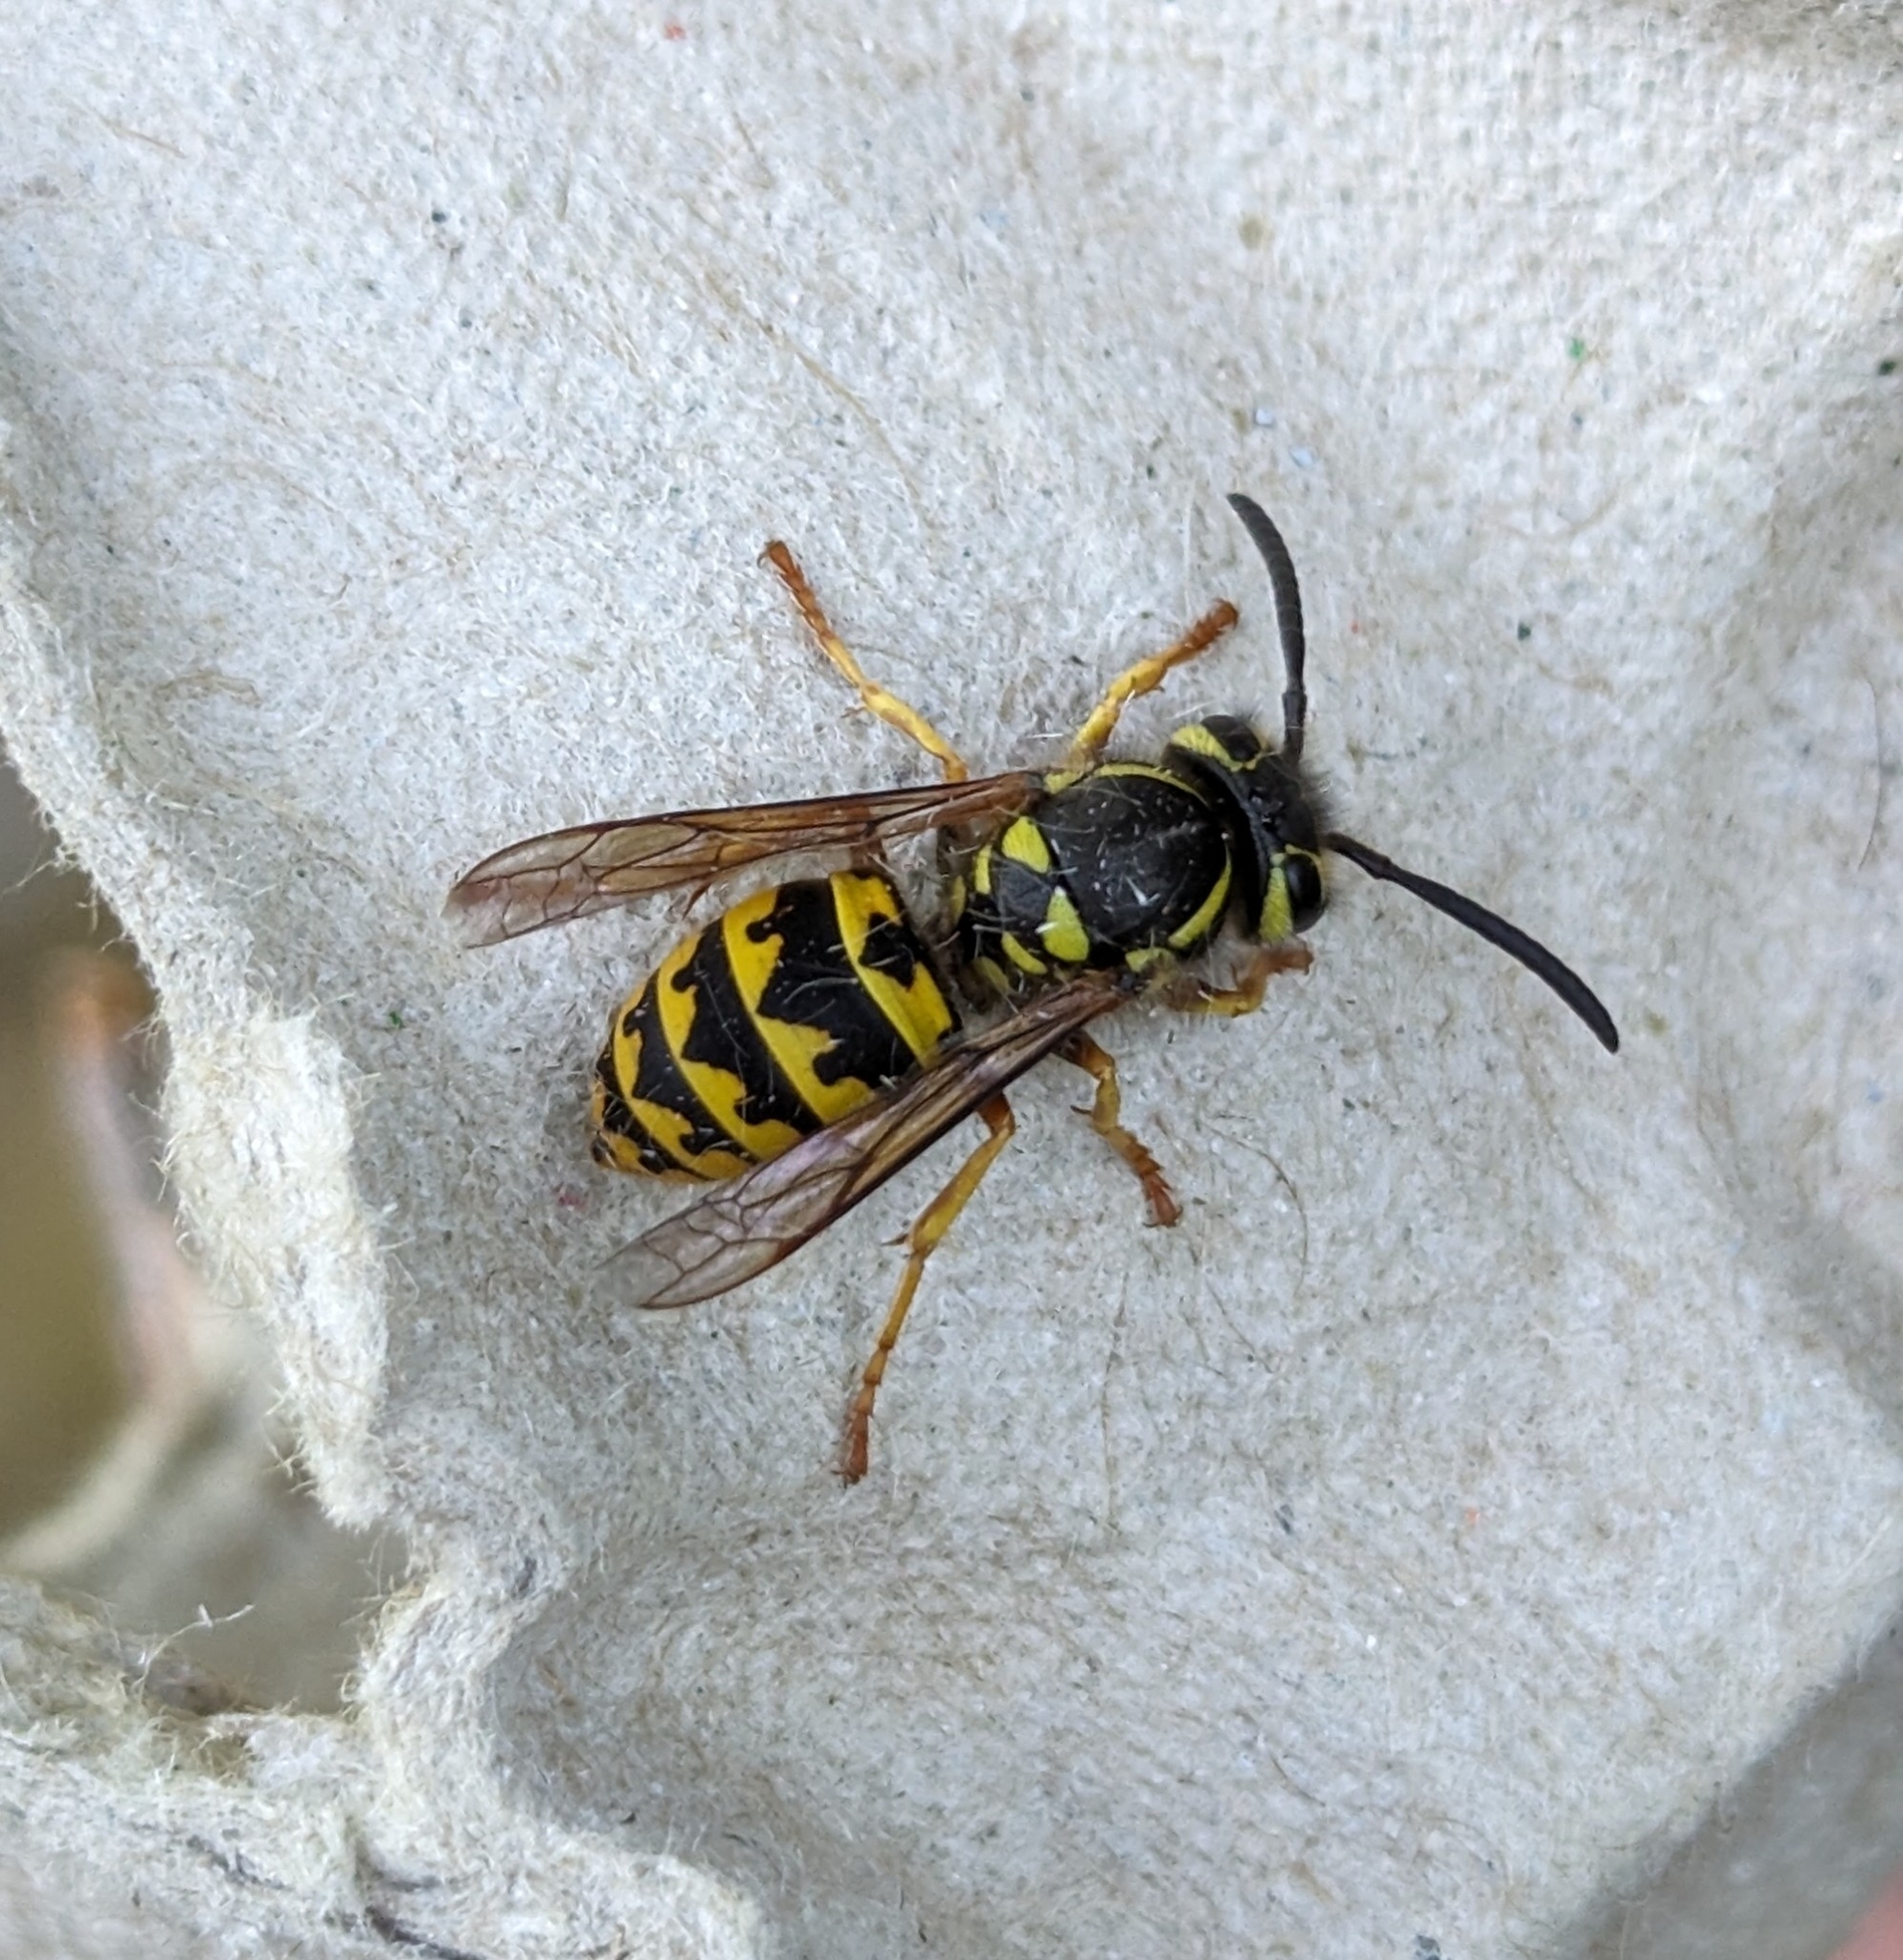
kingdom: Animalia
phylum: Arthropoda
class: Insecta
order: Hymenoptera
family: Vespidae
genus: Vespula
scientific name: Vespula pensylvanica
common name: Western yellowjacket
